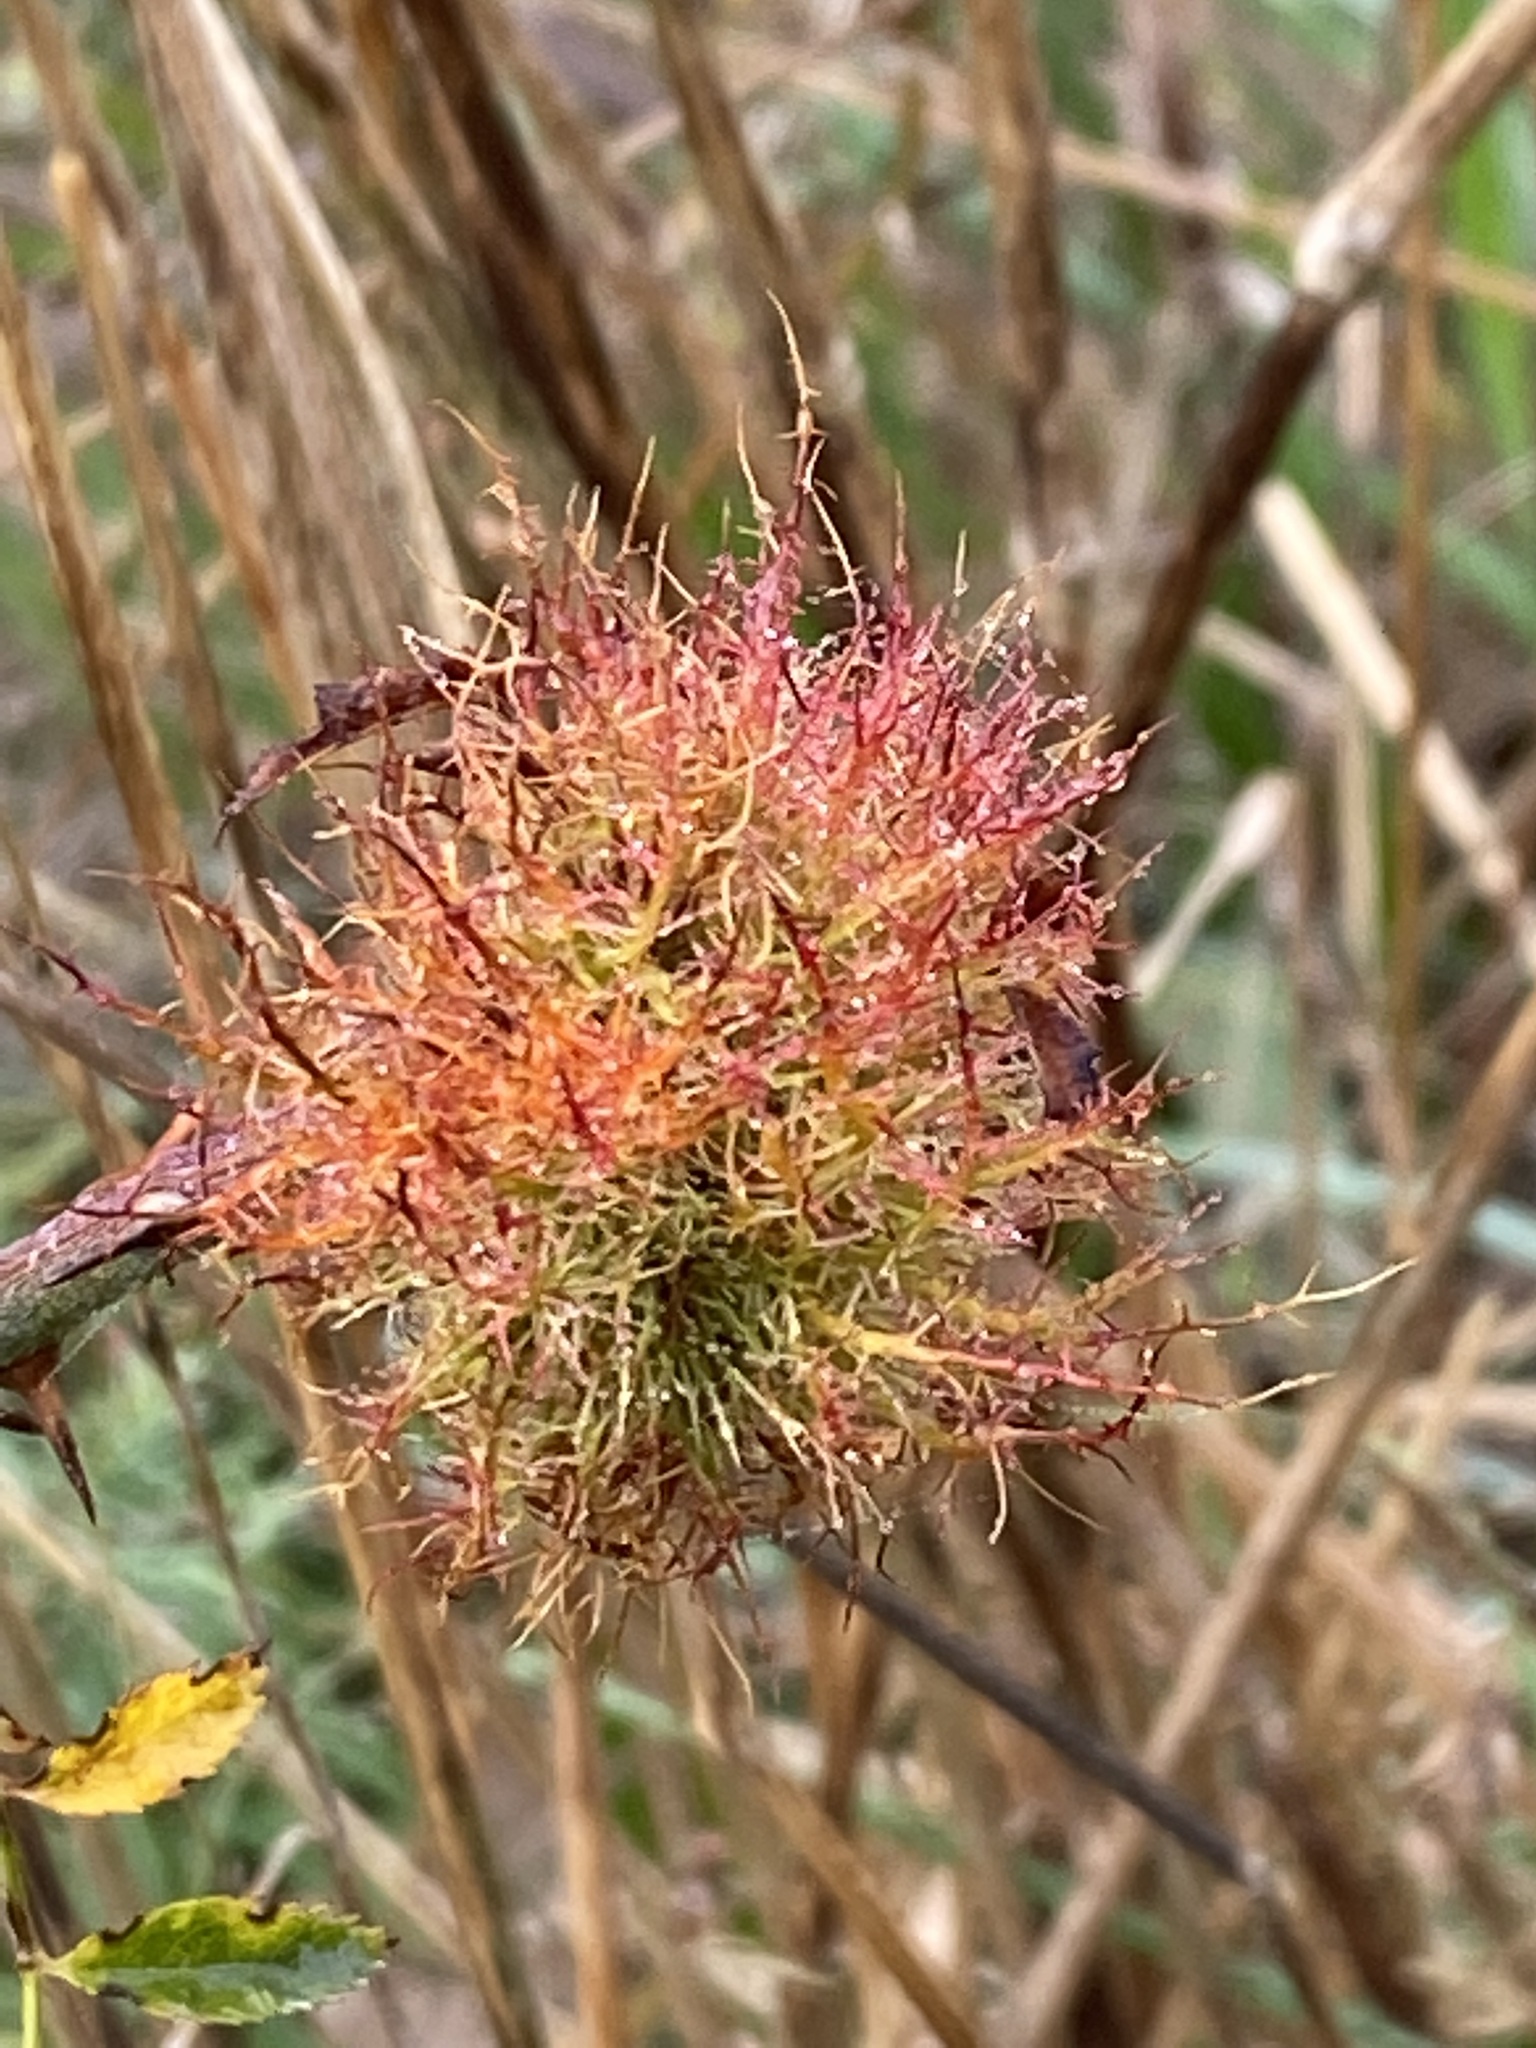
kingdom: Animalia
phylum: Arthropoda
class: Insecta
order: Hymenoptera
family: Cynipidae
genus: Diplolepis
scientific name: Diplolepis rosae
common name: Bedeguar gall
